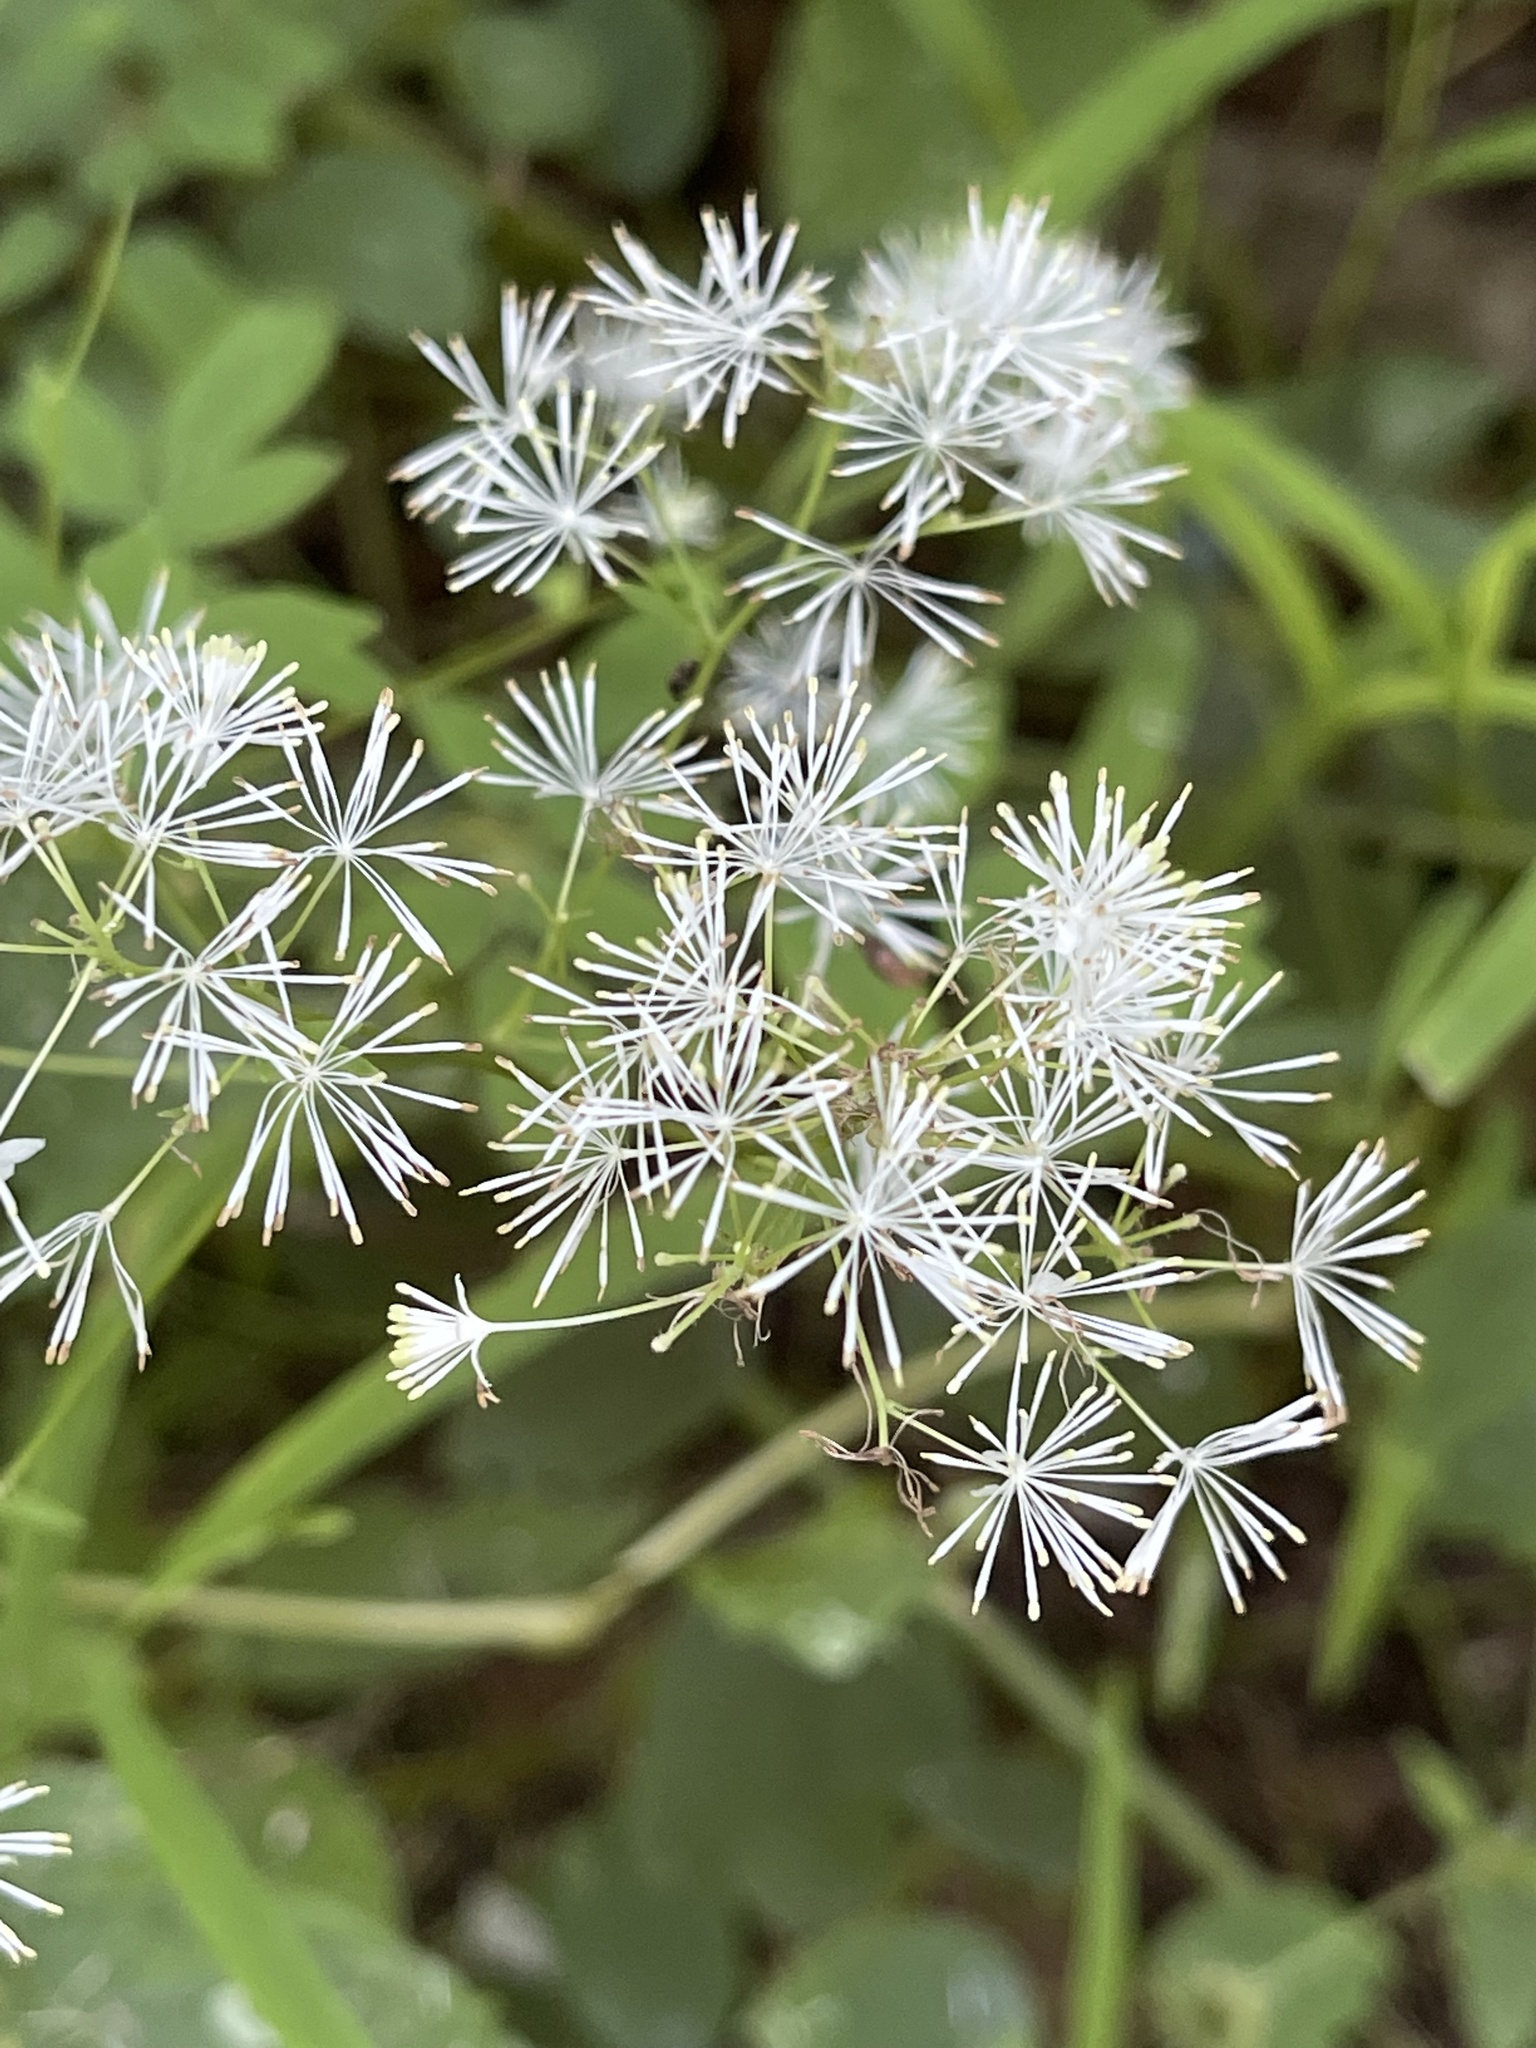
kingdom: Plantae
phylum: Tracheophyta
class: Magnoliopsida
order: Ranunculales
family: Ranunculaceae
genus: Thalictrum
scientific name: Thalictrum pubescens
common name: King-of-the-meadow
